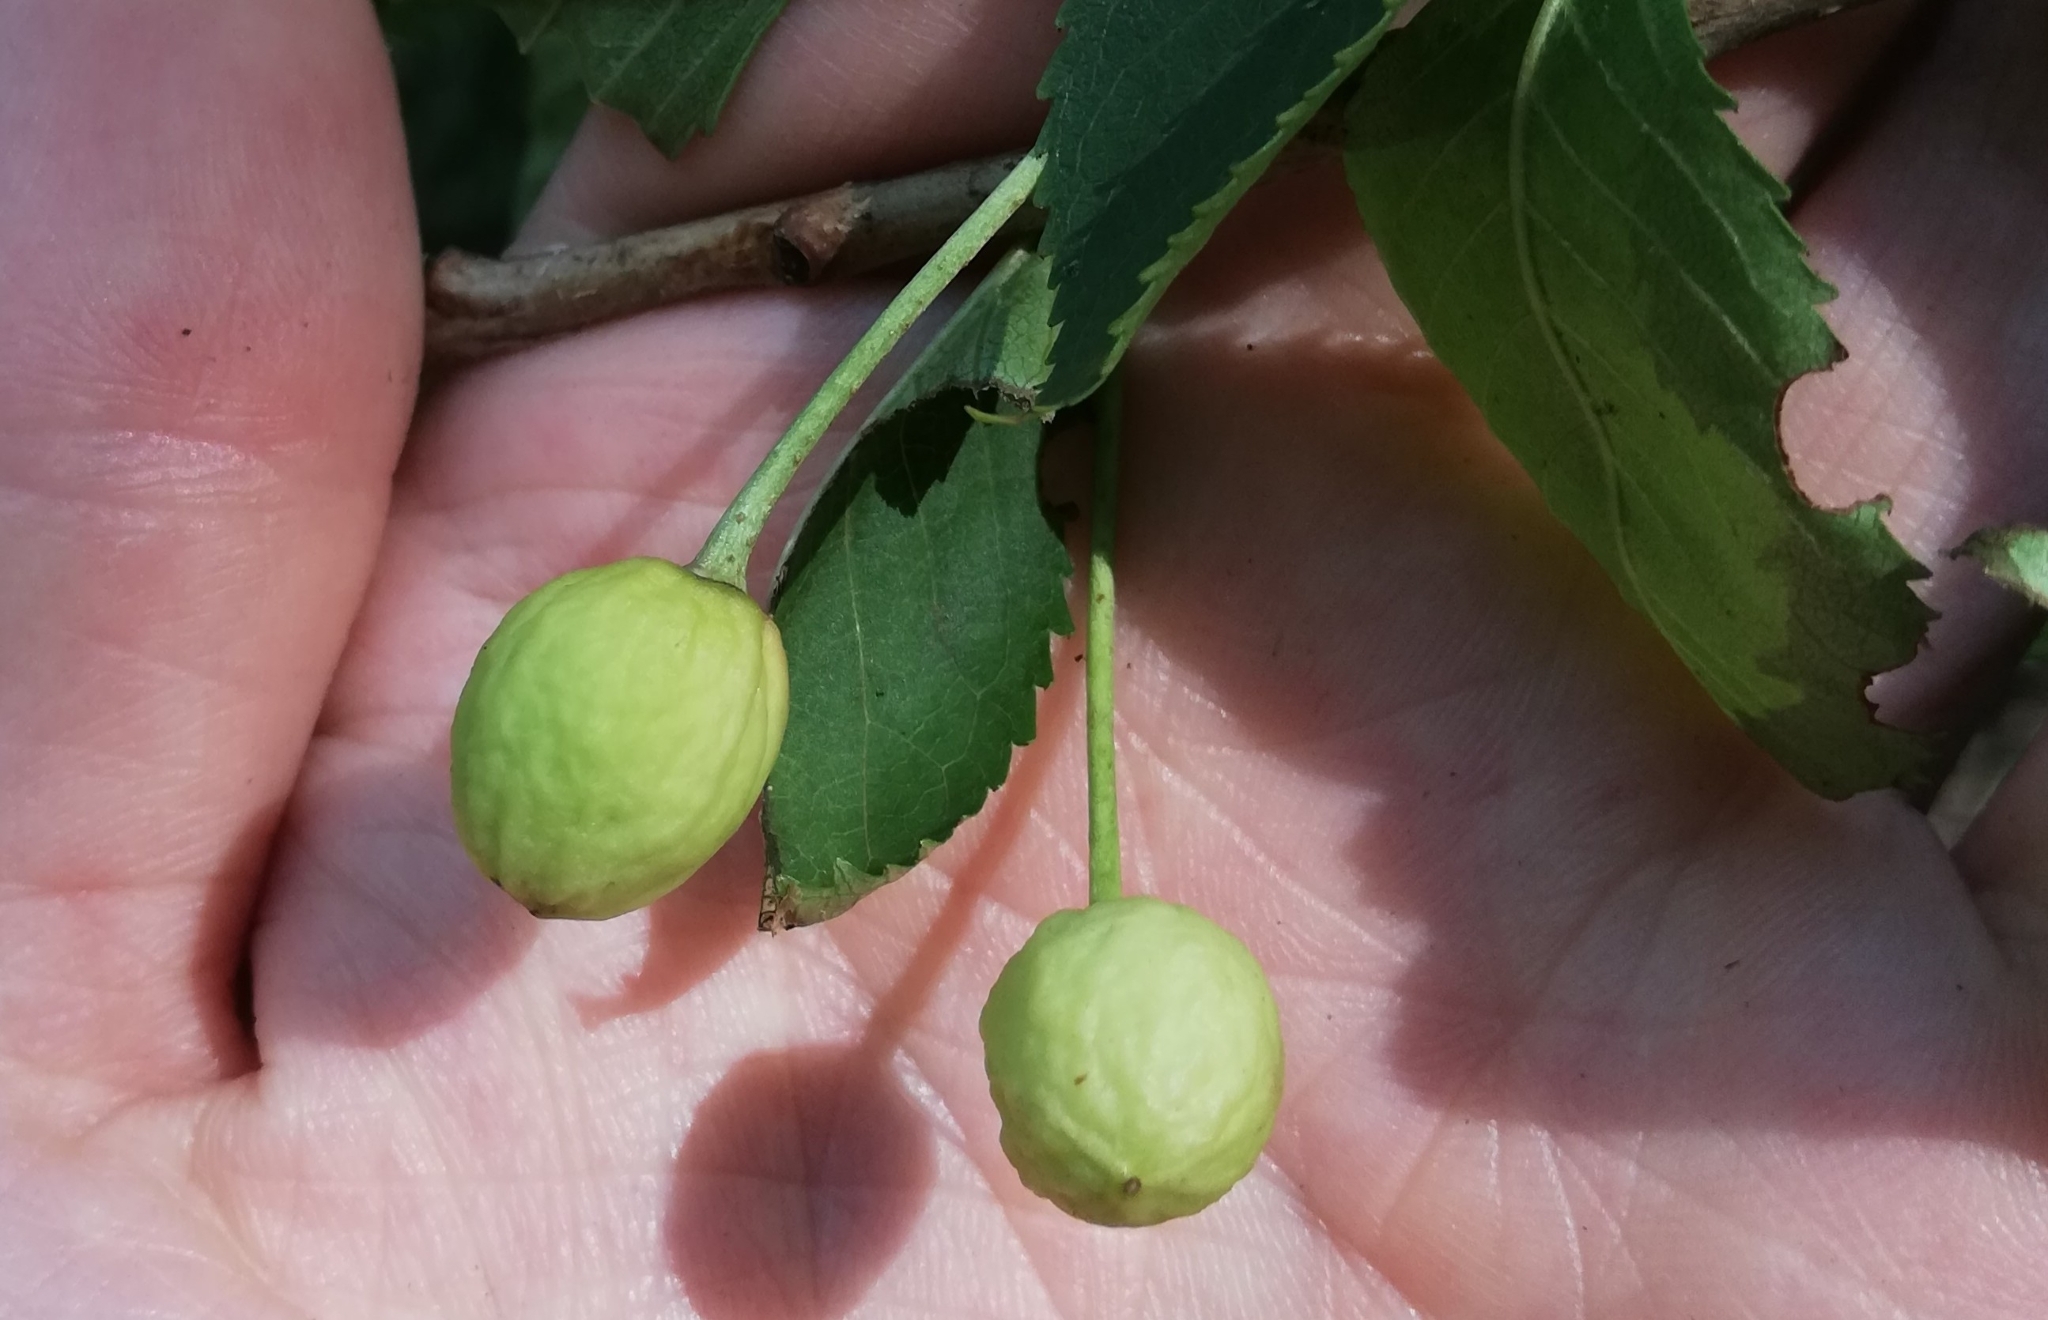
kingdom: Plantae
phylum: Tracheophyta
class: Magnoliopsida
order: Rosales
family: Rosaceae
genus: Prunus
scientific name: Prunus avium
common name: Sweet cherry
